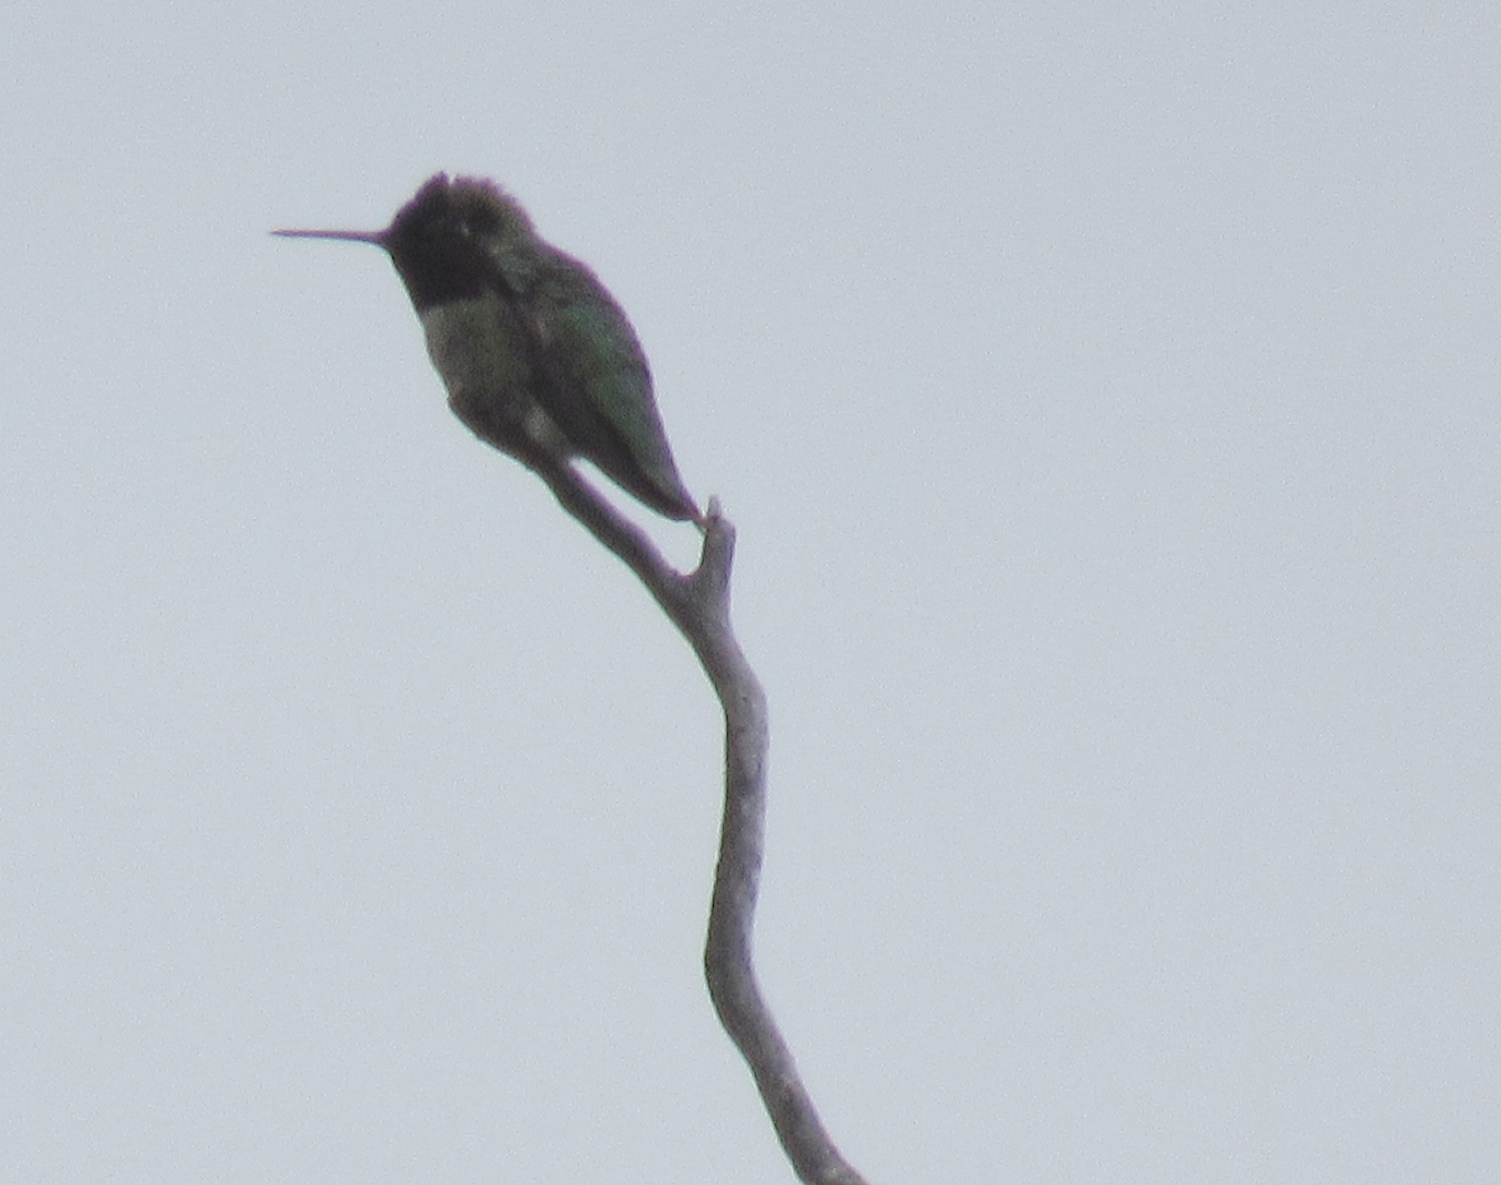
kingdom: Animalia
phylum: Chordata
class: Aves
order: Apodiformes
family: Trochilidae
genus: Calypte
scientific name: Calypte anna
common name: Anna's hummingbird
